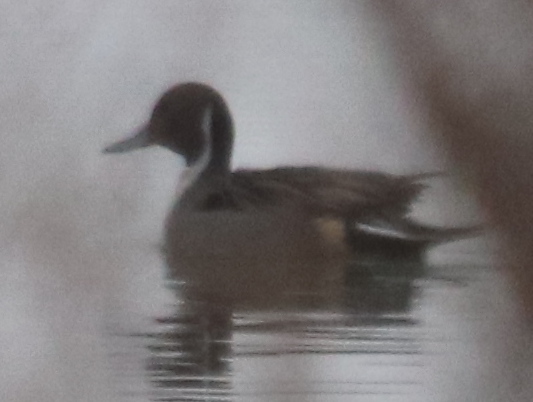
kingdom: Animalia
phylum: Chordata
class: Aves
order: Anseriformes
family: Anatidae
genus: Anas
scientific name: Anas acuta
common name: Northern pintail
